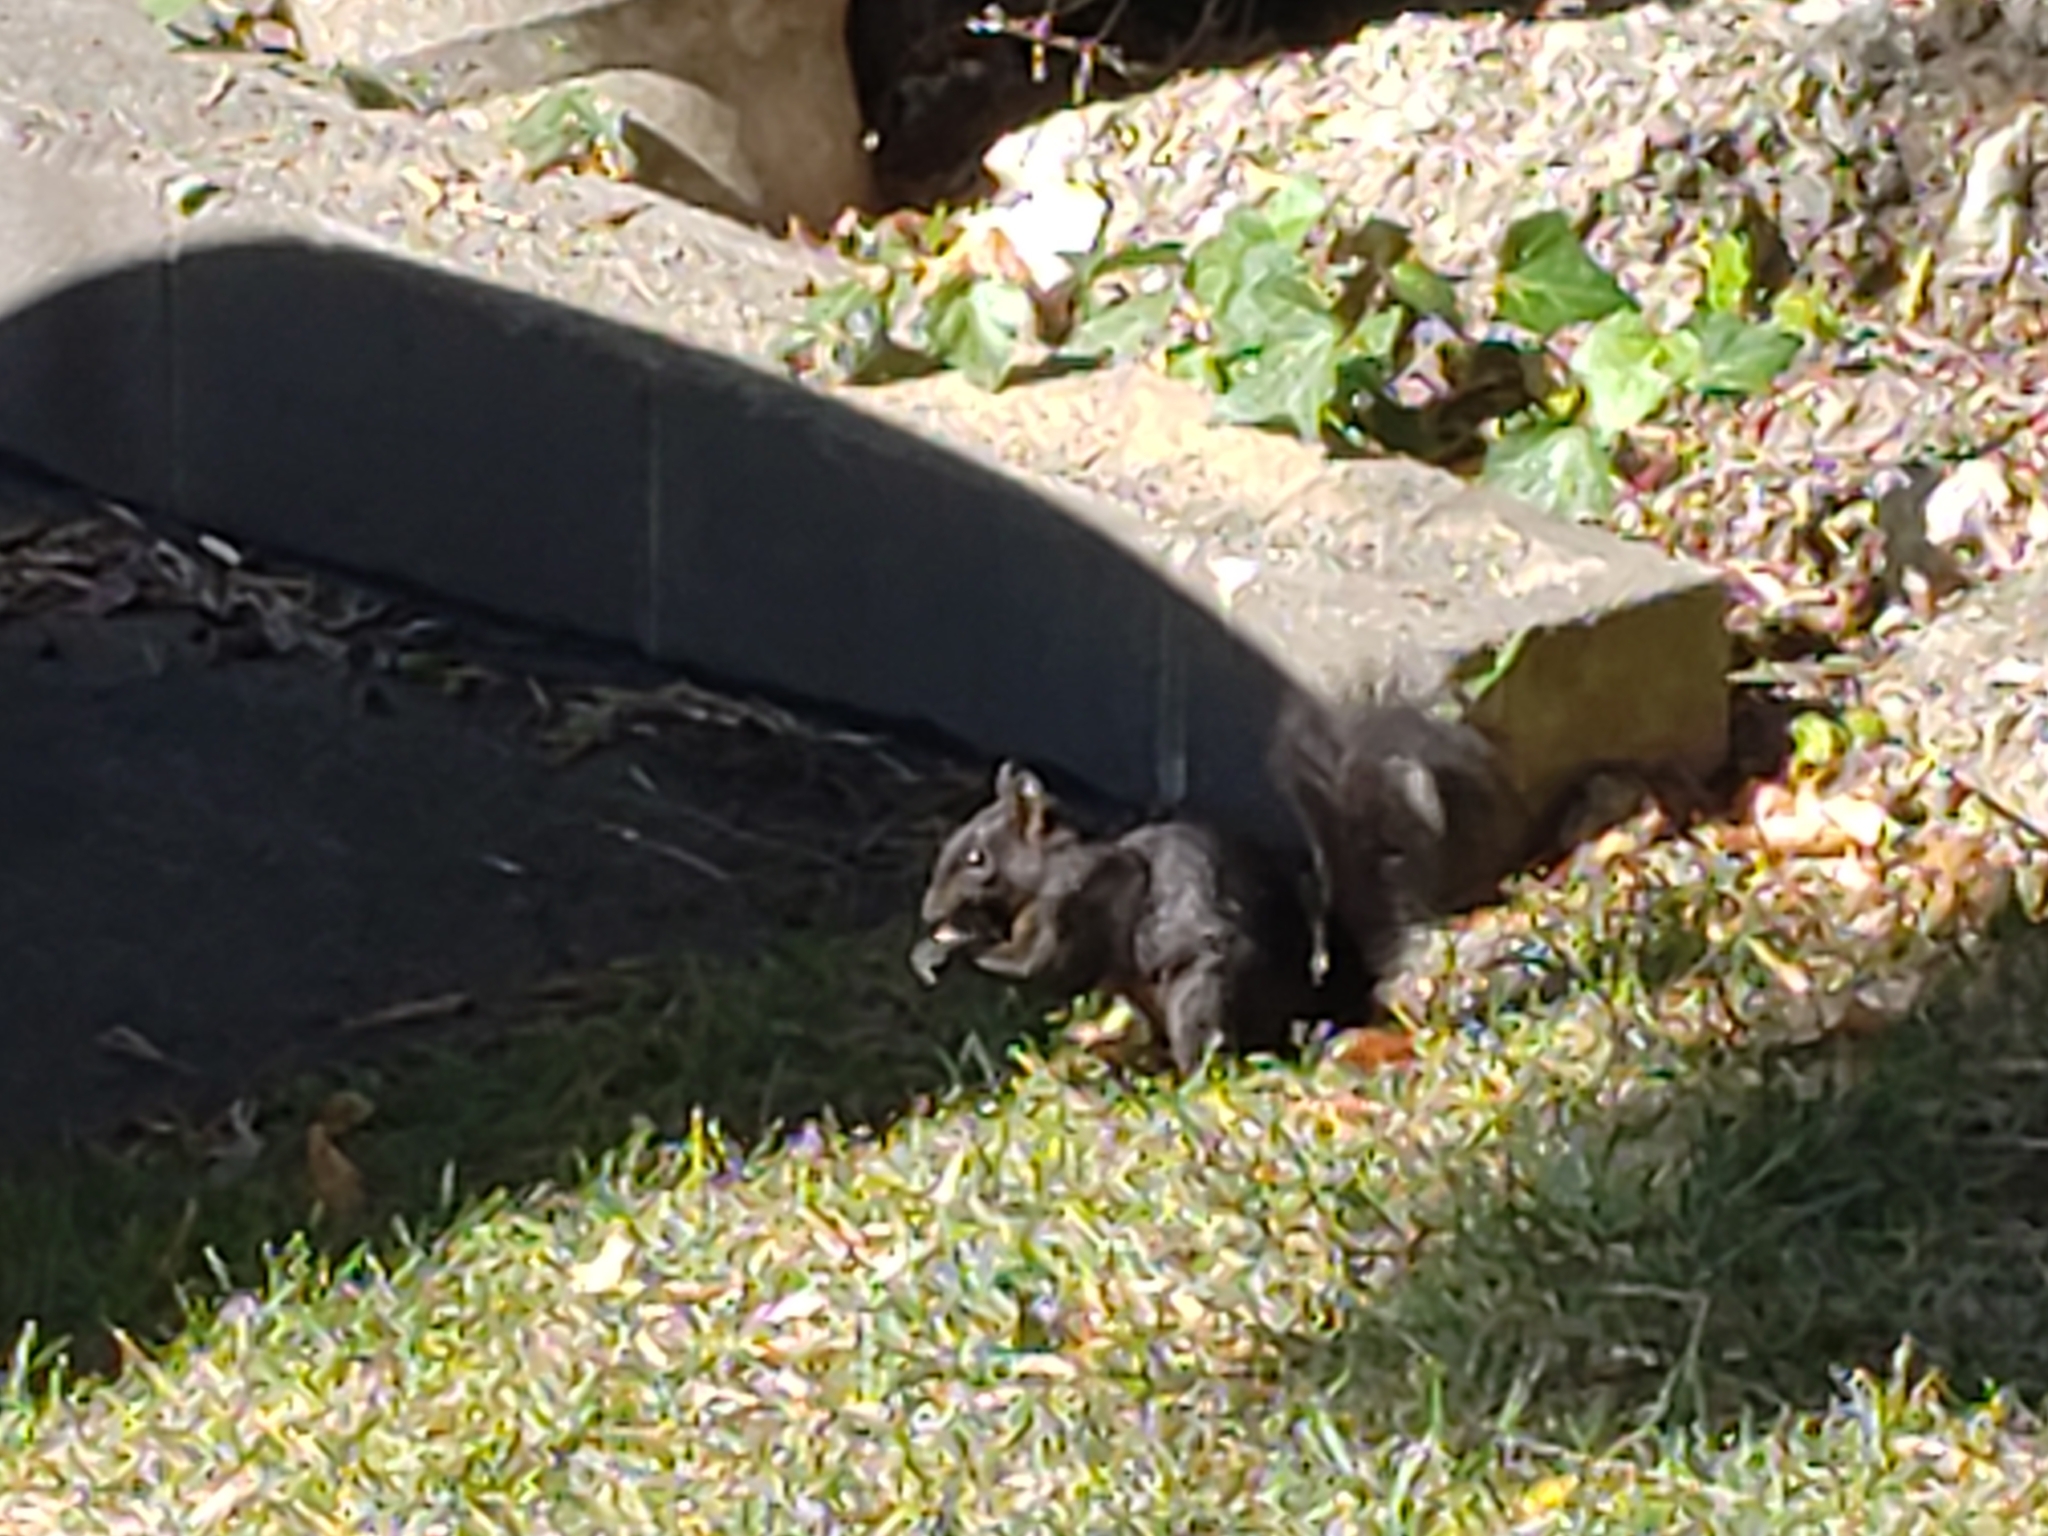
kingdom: Animalia
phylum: Chordata
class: Mammalia
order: Rodentia
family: Sciuridae
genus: Sciurus
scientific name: Sciurus carolinensis
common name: Eastern gray squirrel
